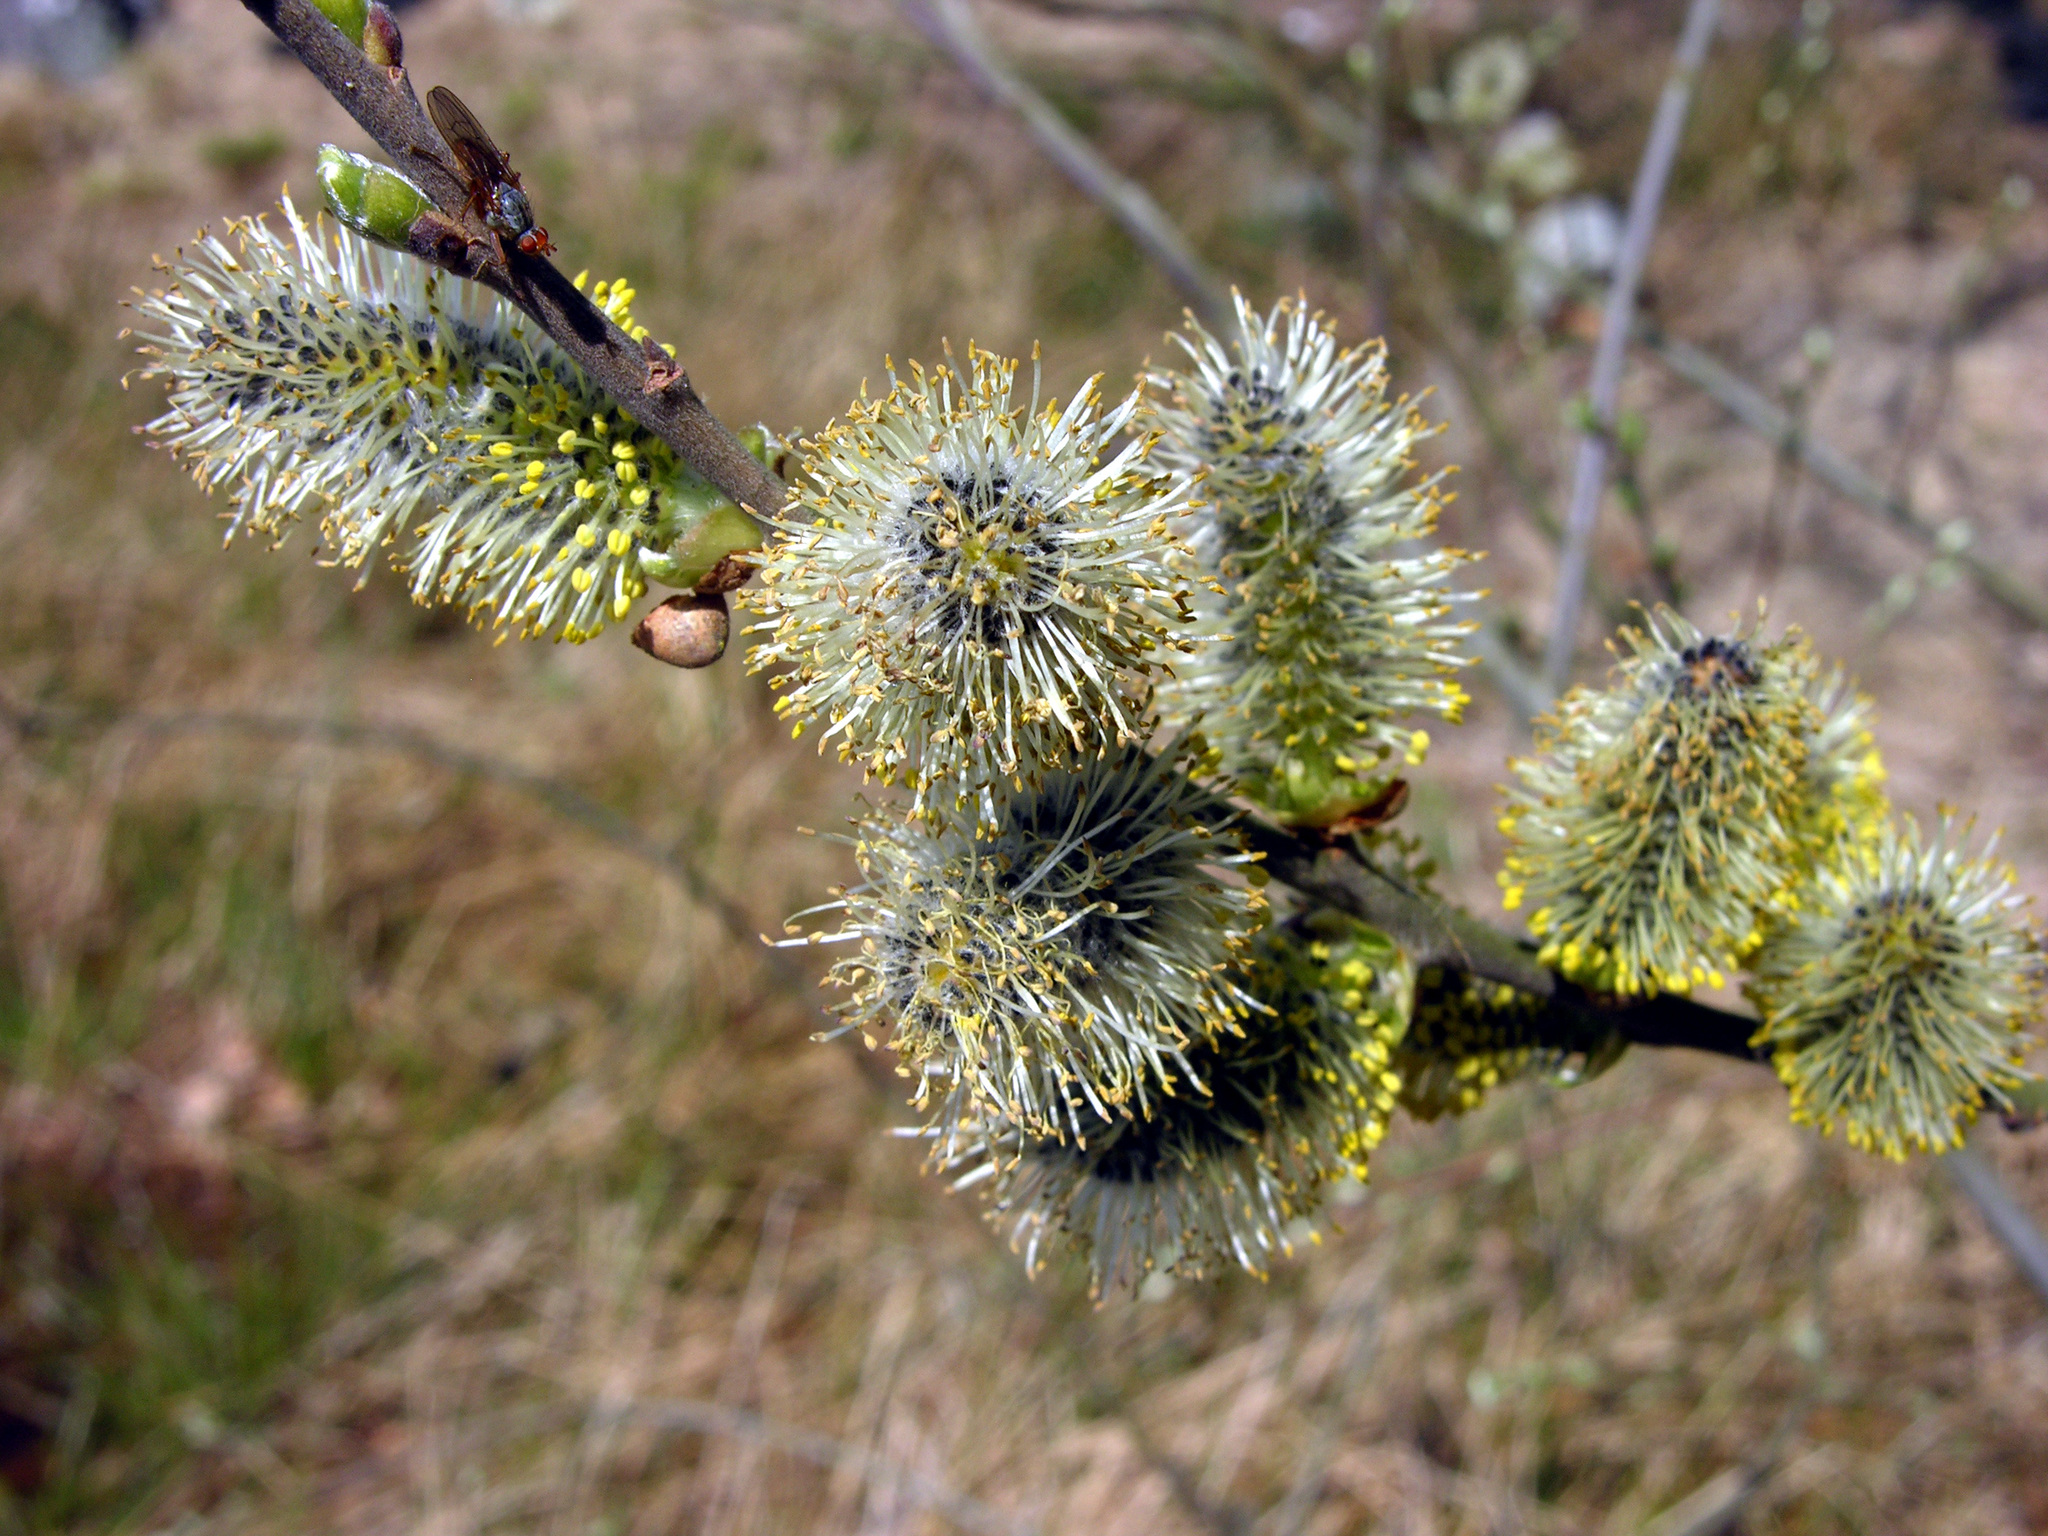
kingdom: Plantae
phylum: Tracheophyta
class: Magnoliopsida
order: Malpighiales
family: Salicaceae
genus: Salix
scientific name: Salix caprea
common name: Goat willow
